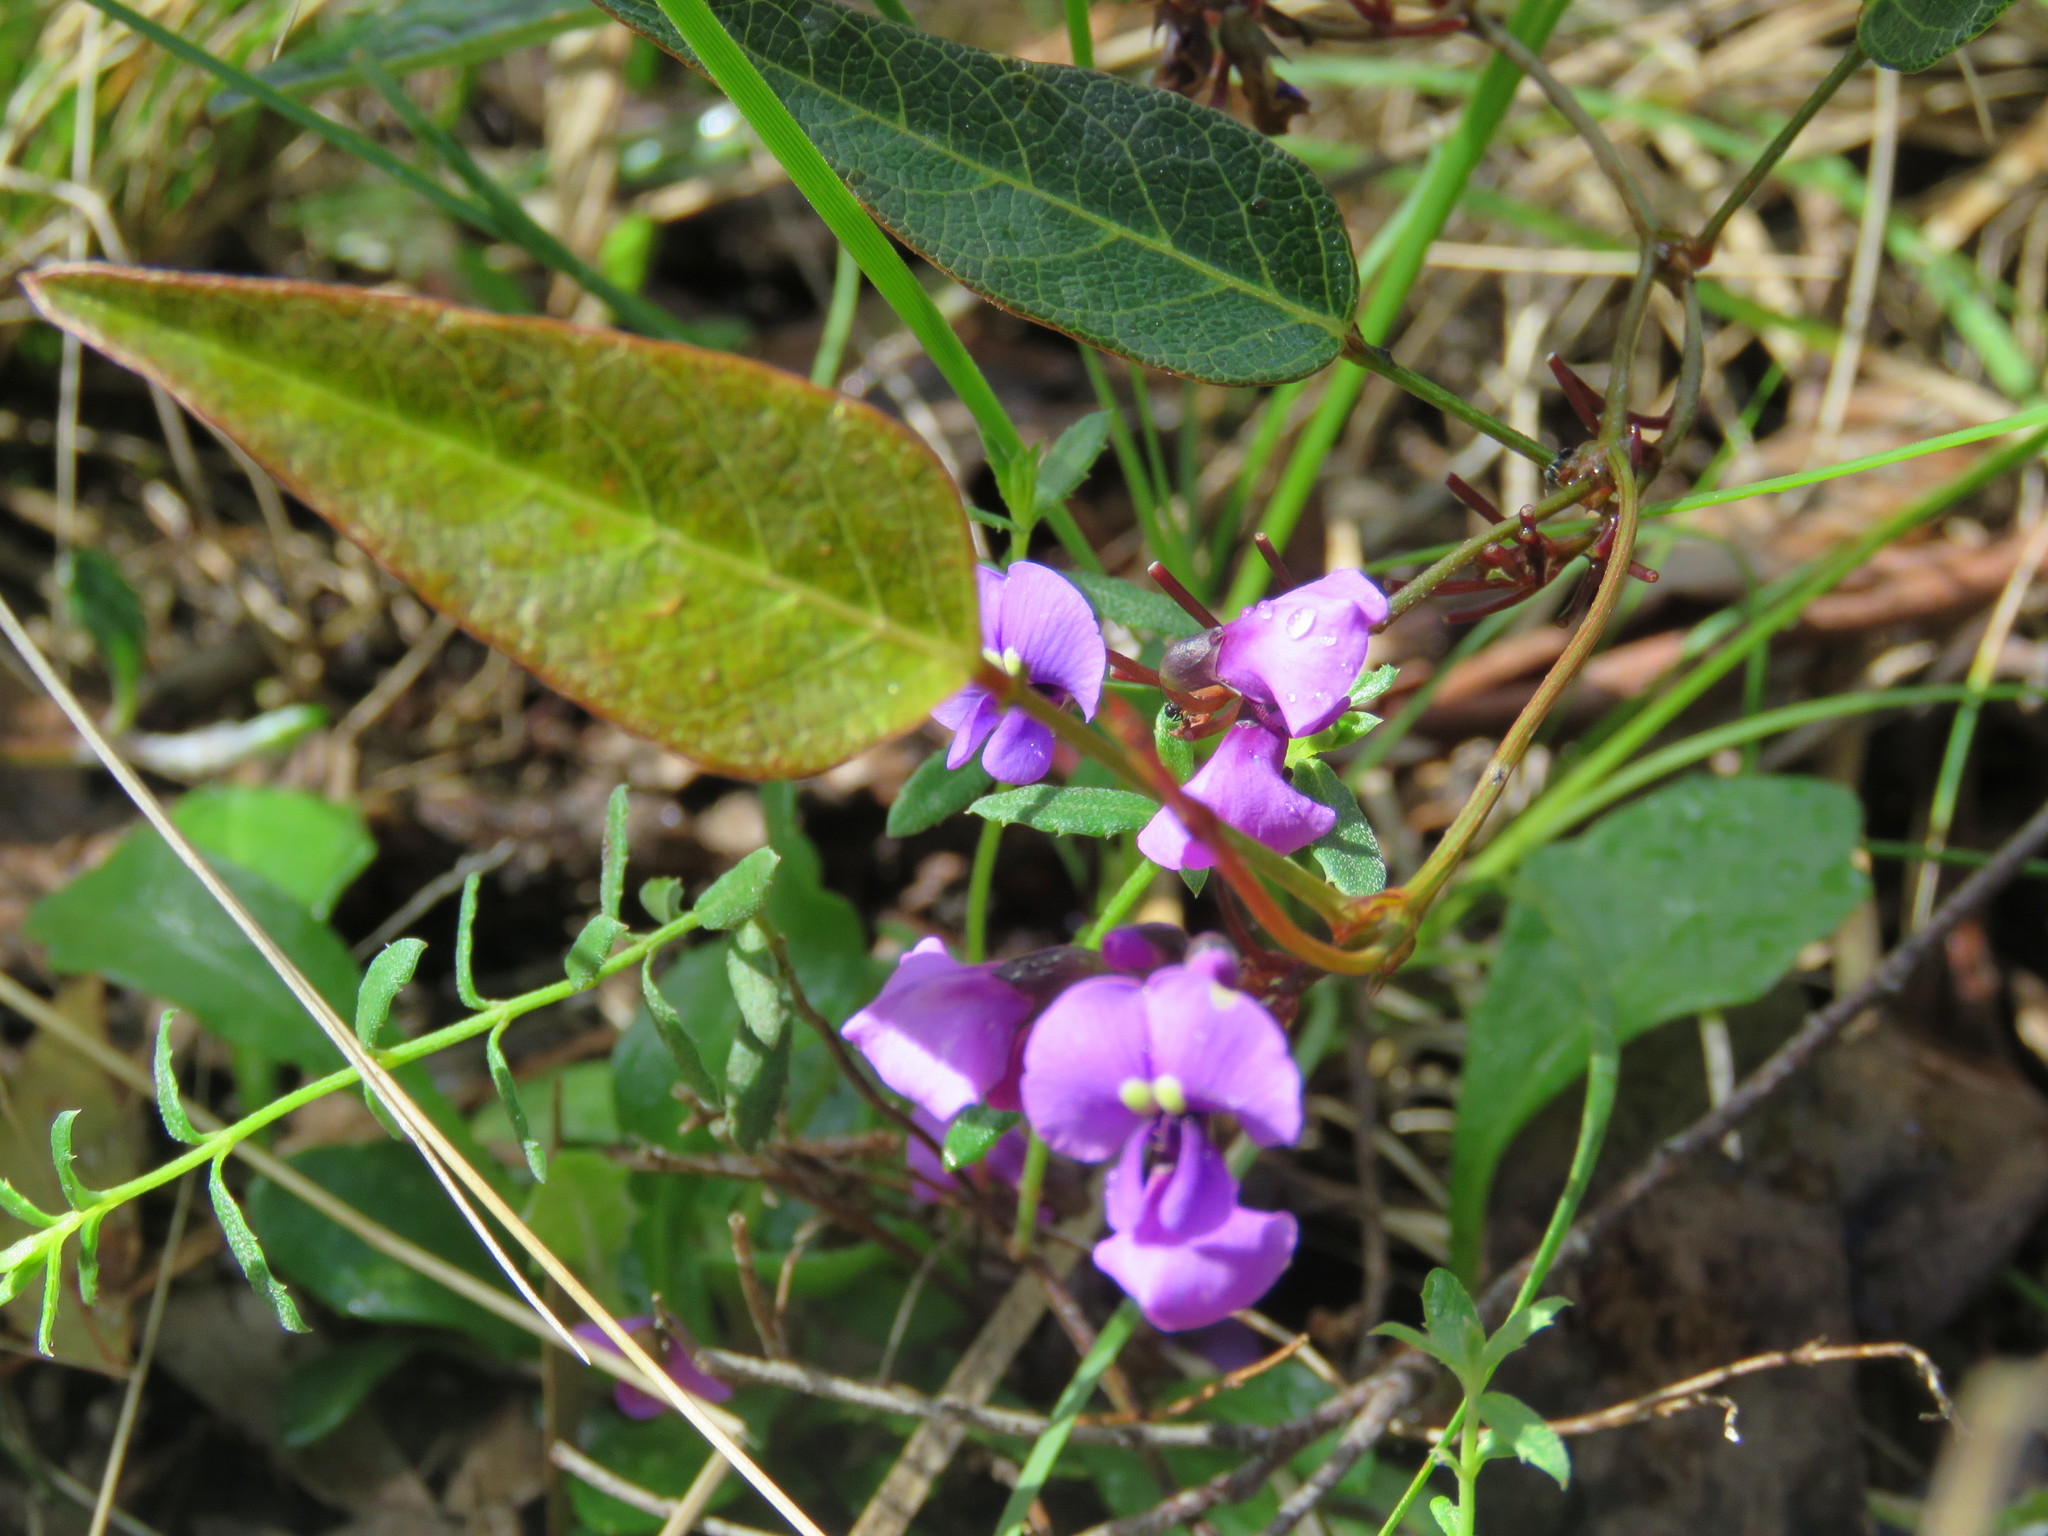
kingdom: Plantae
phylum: Tracheophyta
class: Magnoliopsida
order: Fabales
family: Fabaceae
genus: Hardenbergia
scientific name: Hardenbergia violacea
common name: Coral-pea
